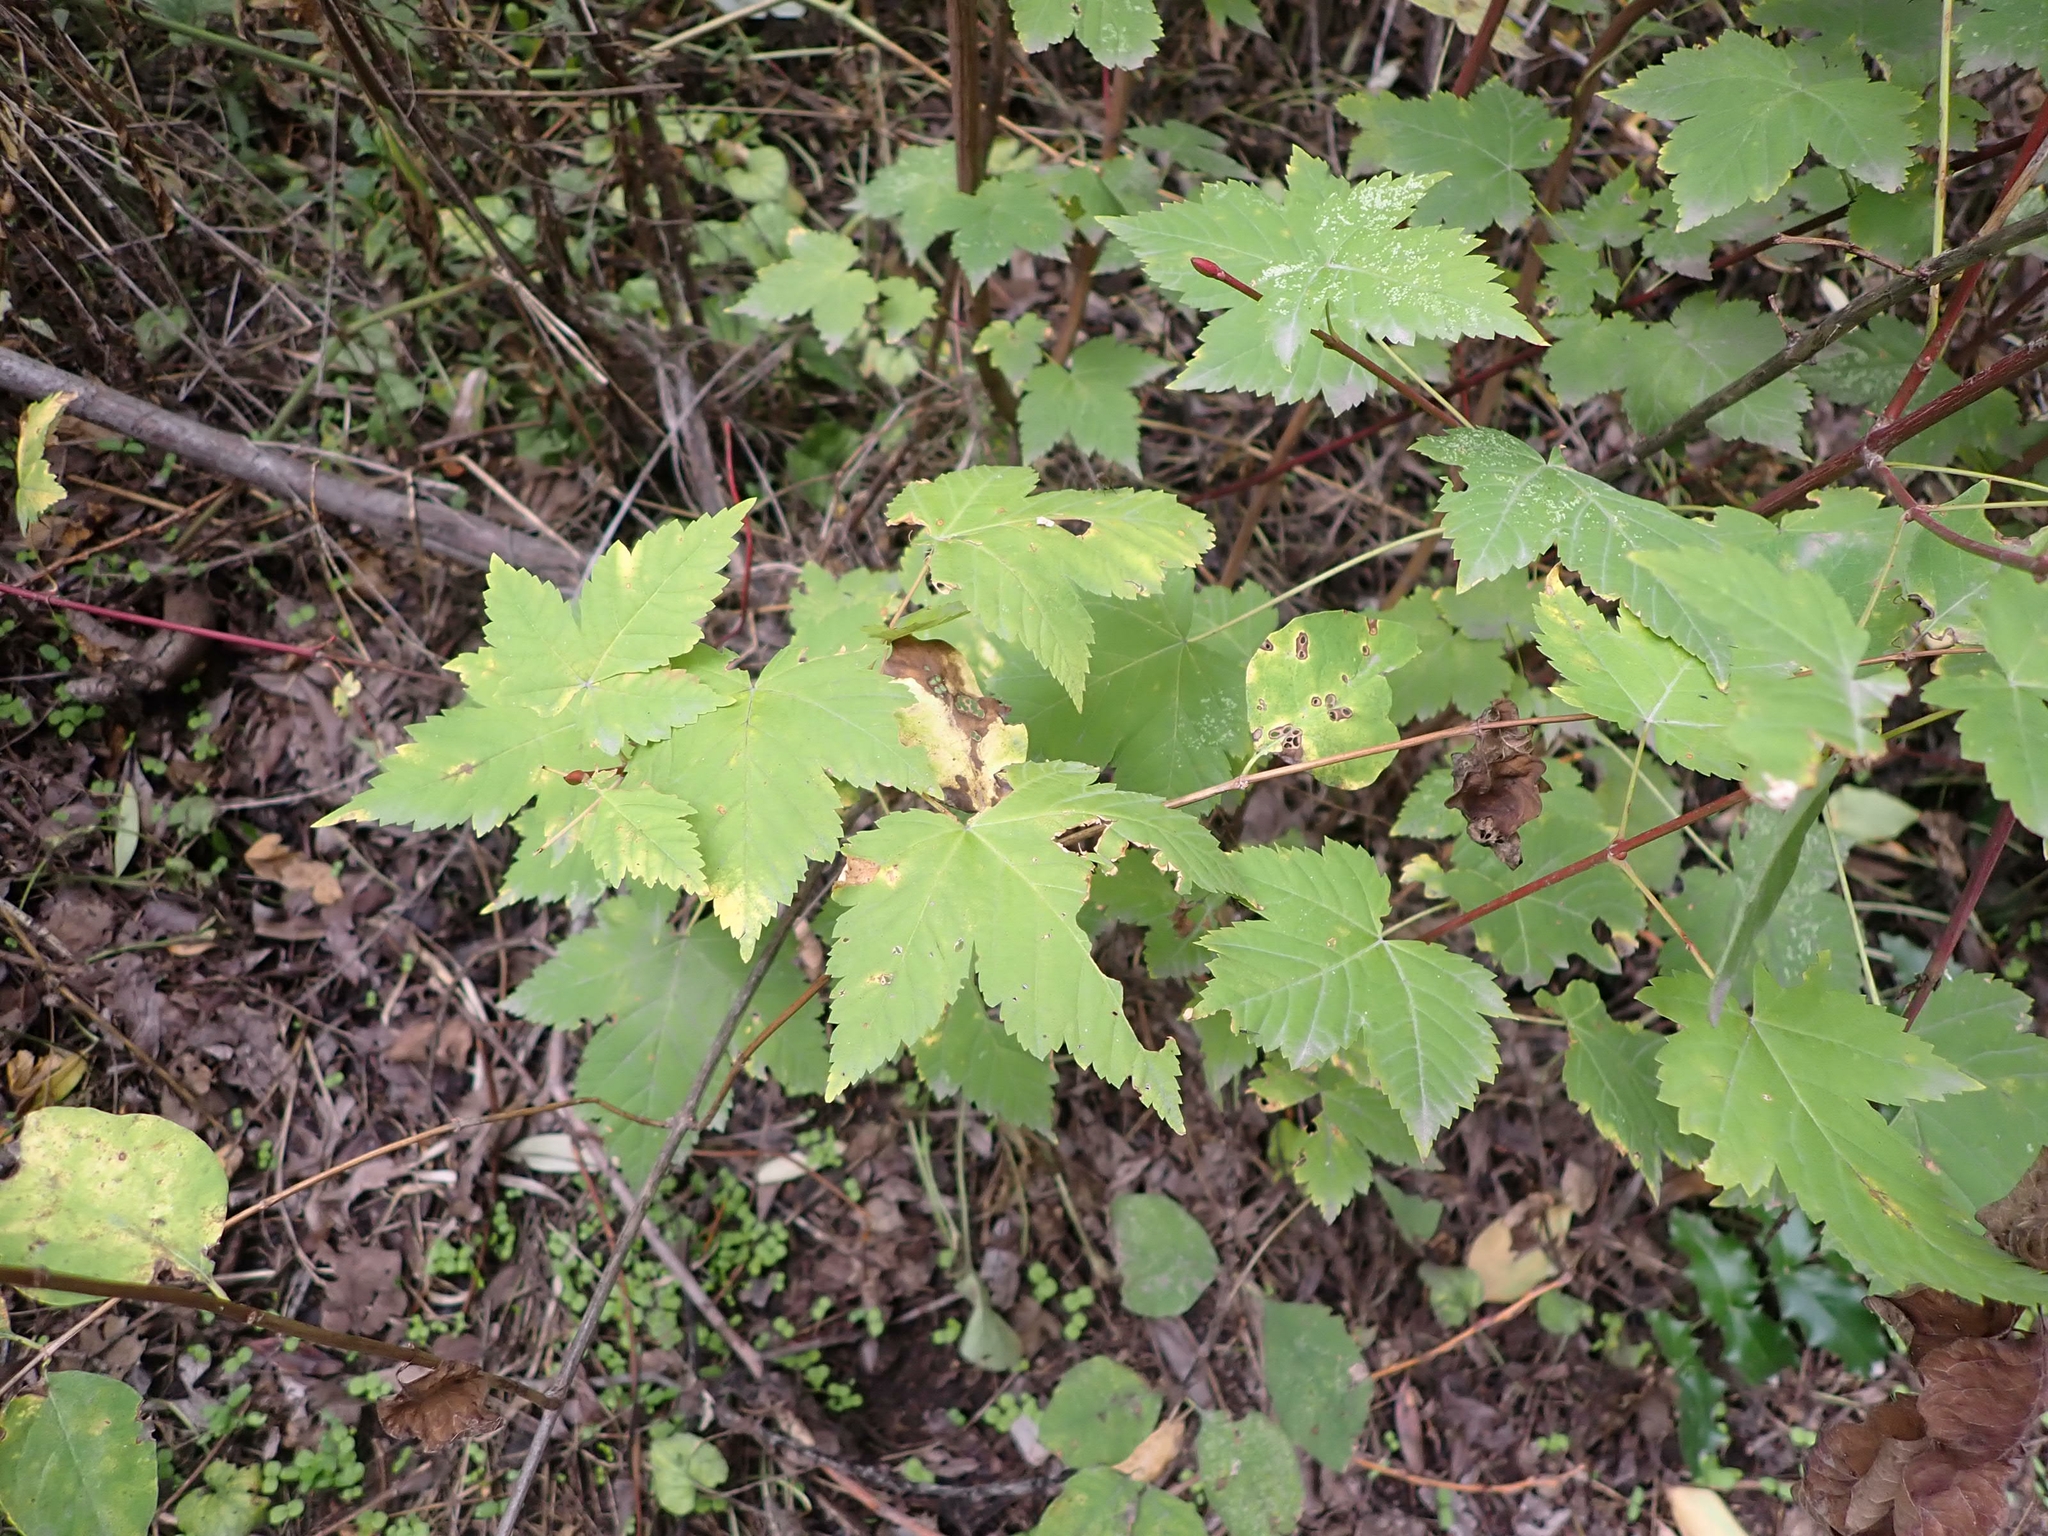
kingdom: Plantae
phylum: Tracheophyta
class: Magnoliopsida
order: Sapindales
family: Sapindaceae
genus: Acer
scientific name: Acer glabrum
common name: Rocky mountain maple
